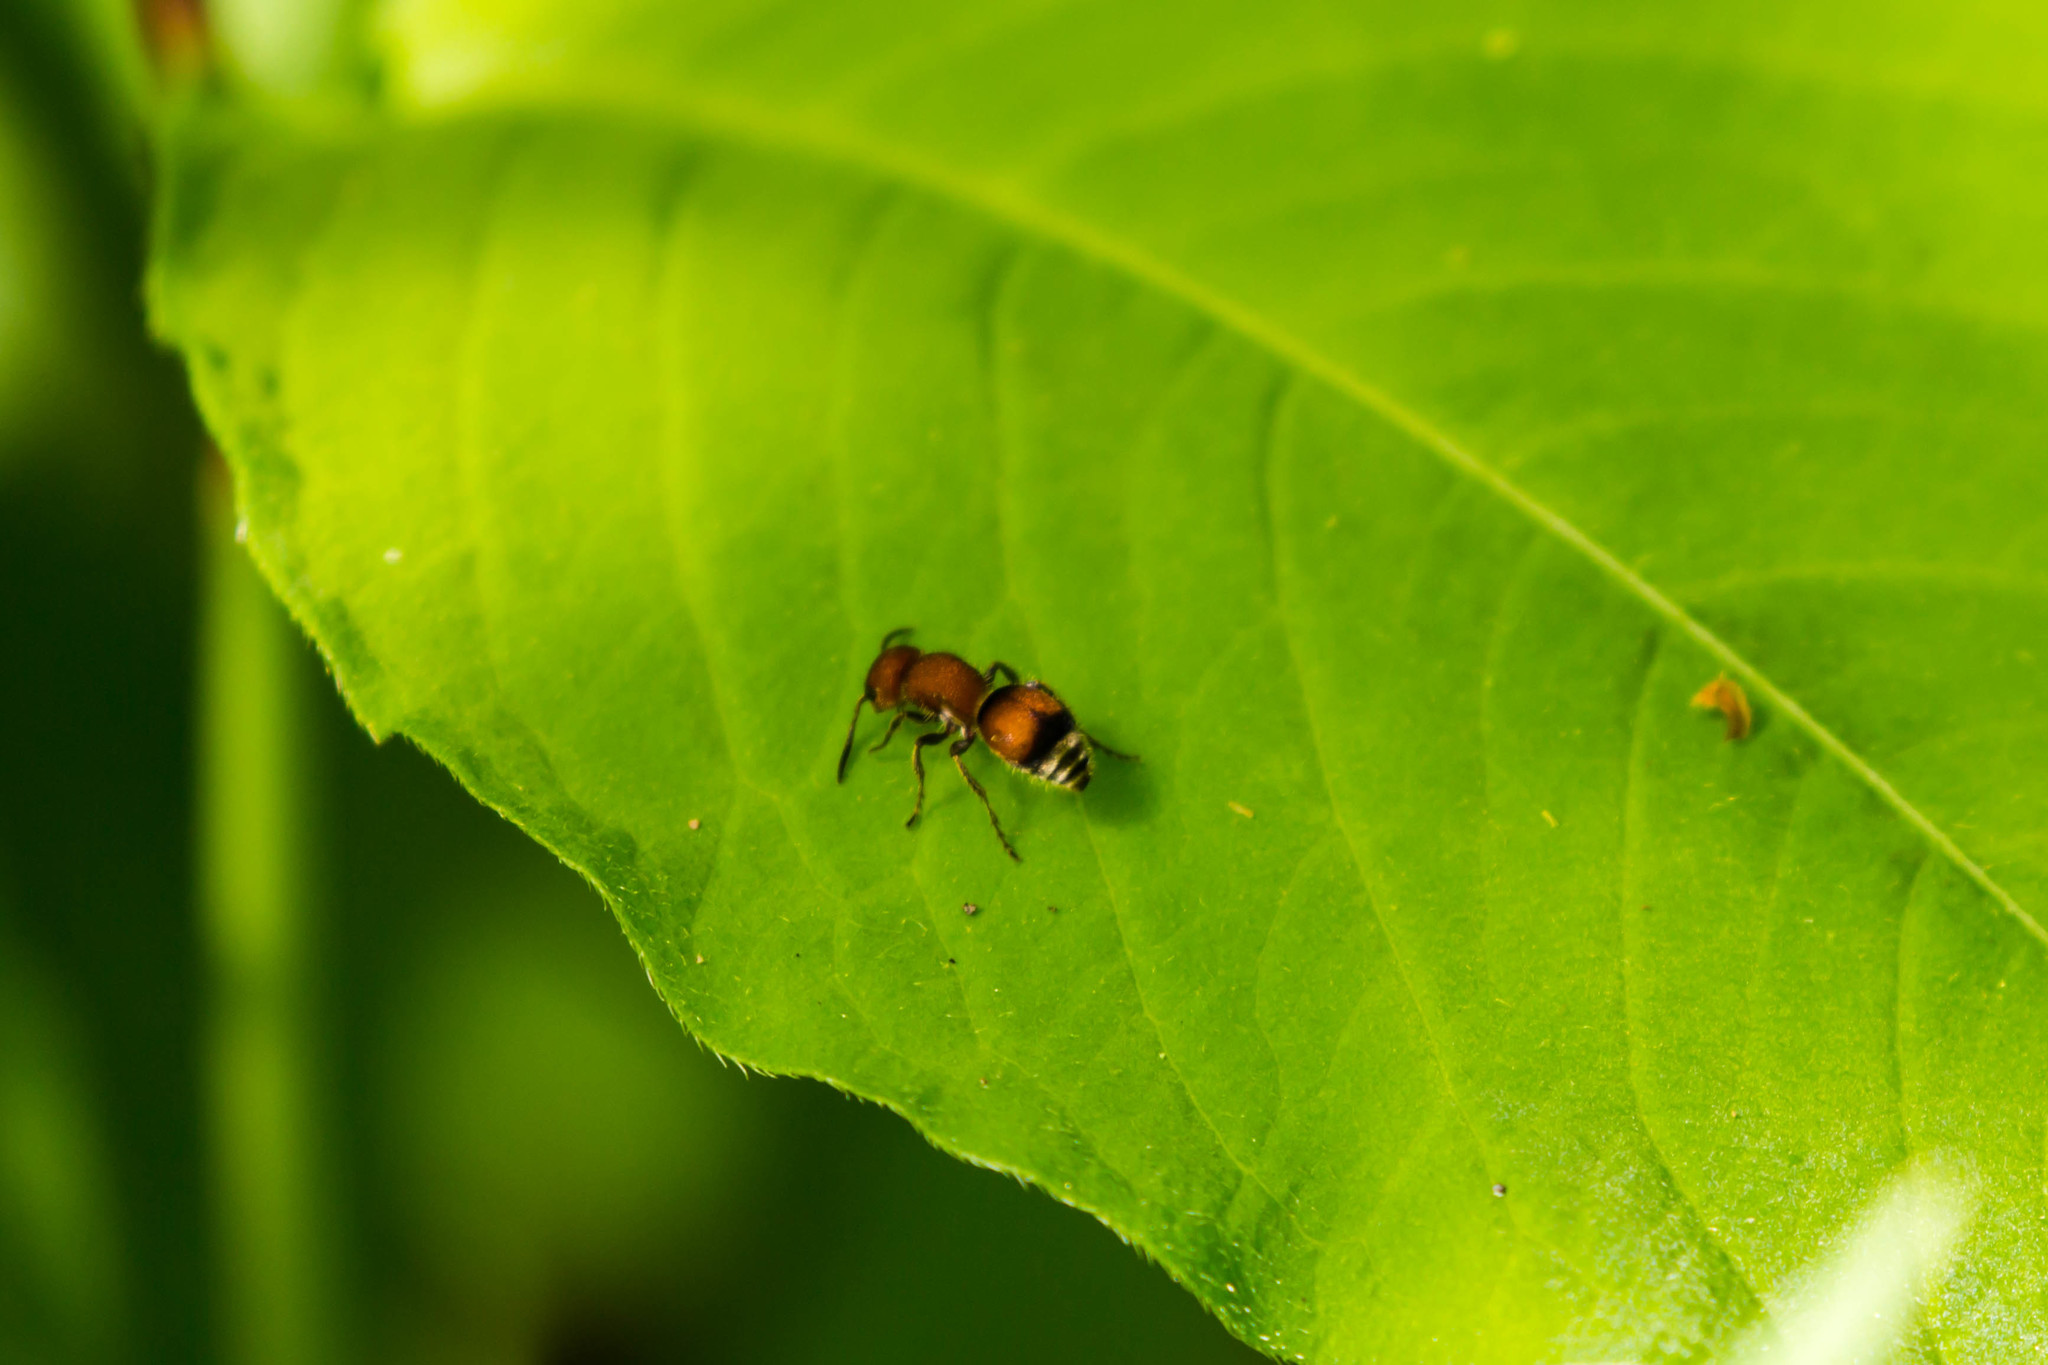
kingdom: Animalia
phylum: Arthropoda
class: Insecta
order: Hymenoptera
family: Mutillidae
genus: Pseudomethoca
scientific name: Pseudomethoca
